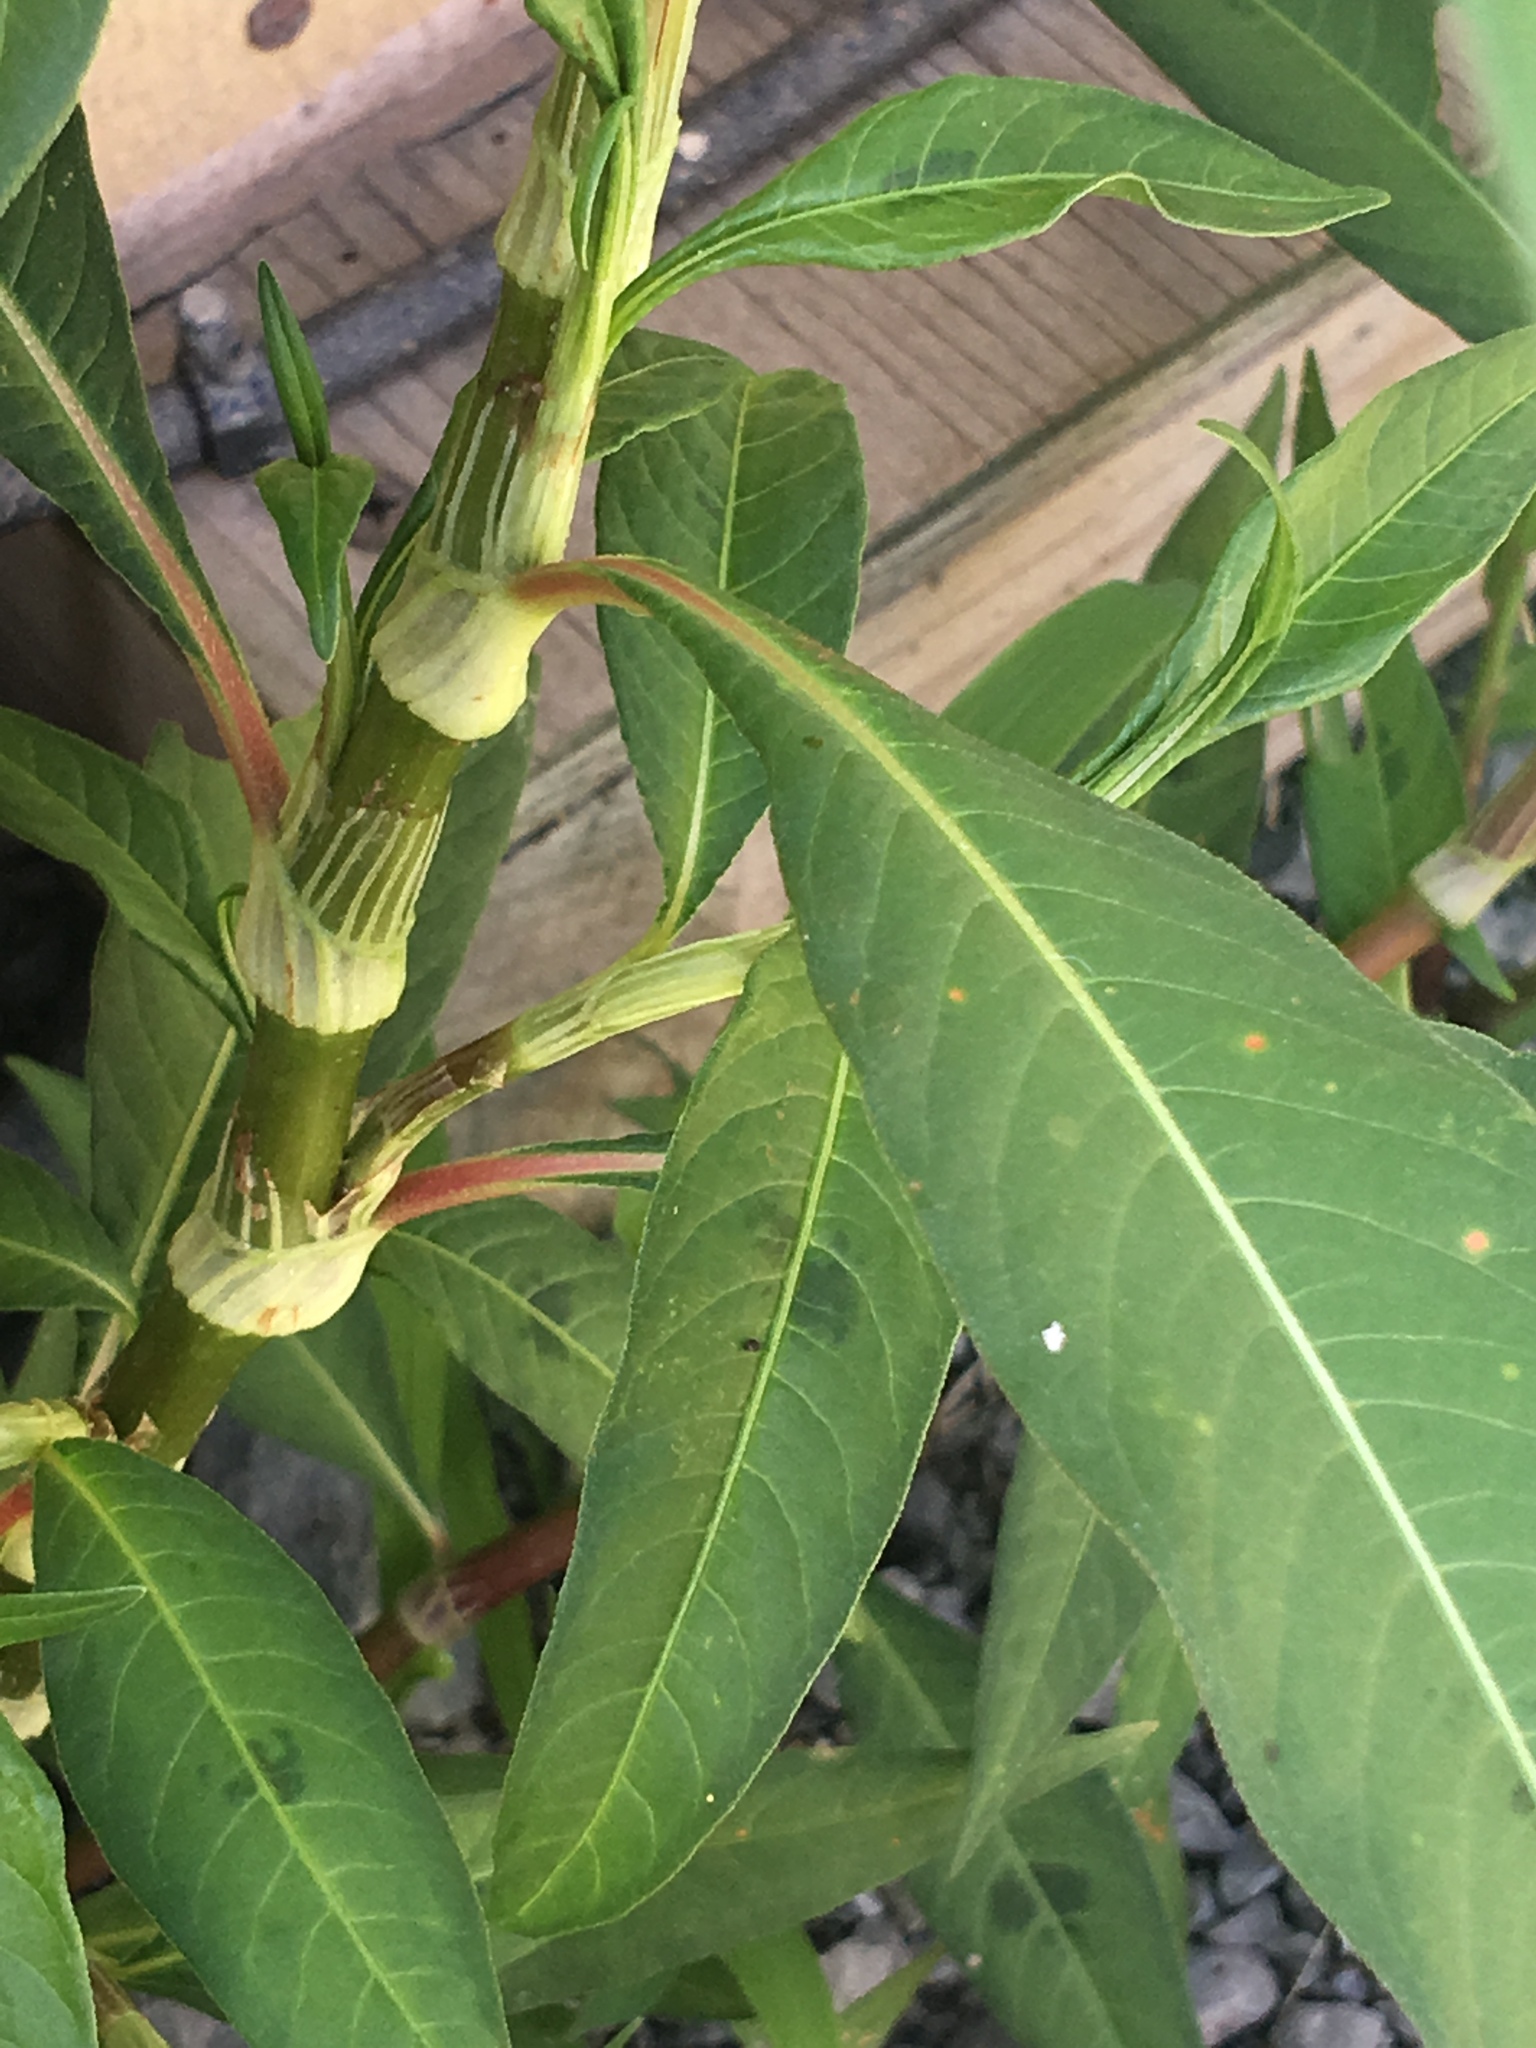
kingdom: Plantae
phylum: Tracheophyta
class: Magnoliopsida
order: Caryophyllales
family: Polygonaceae
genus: Persicaria
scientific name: Persicaria lapathifolia
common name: Curlytop knotweed
